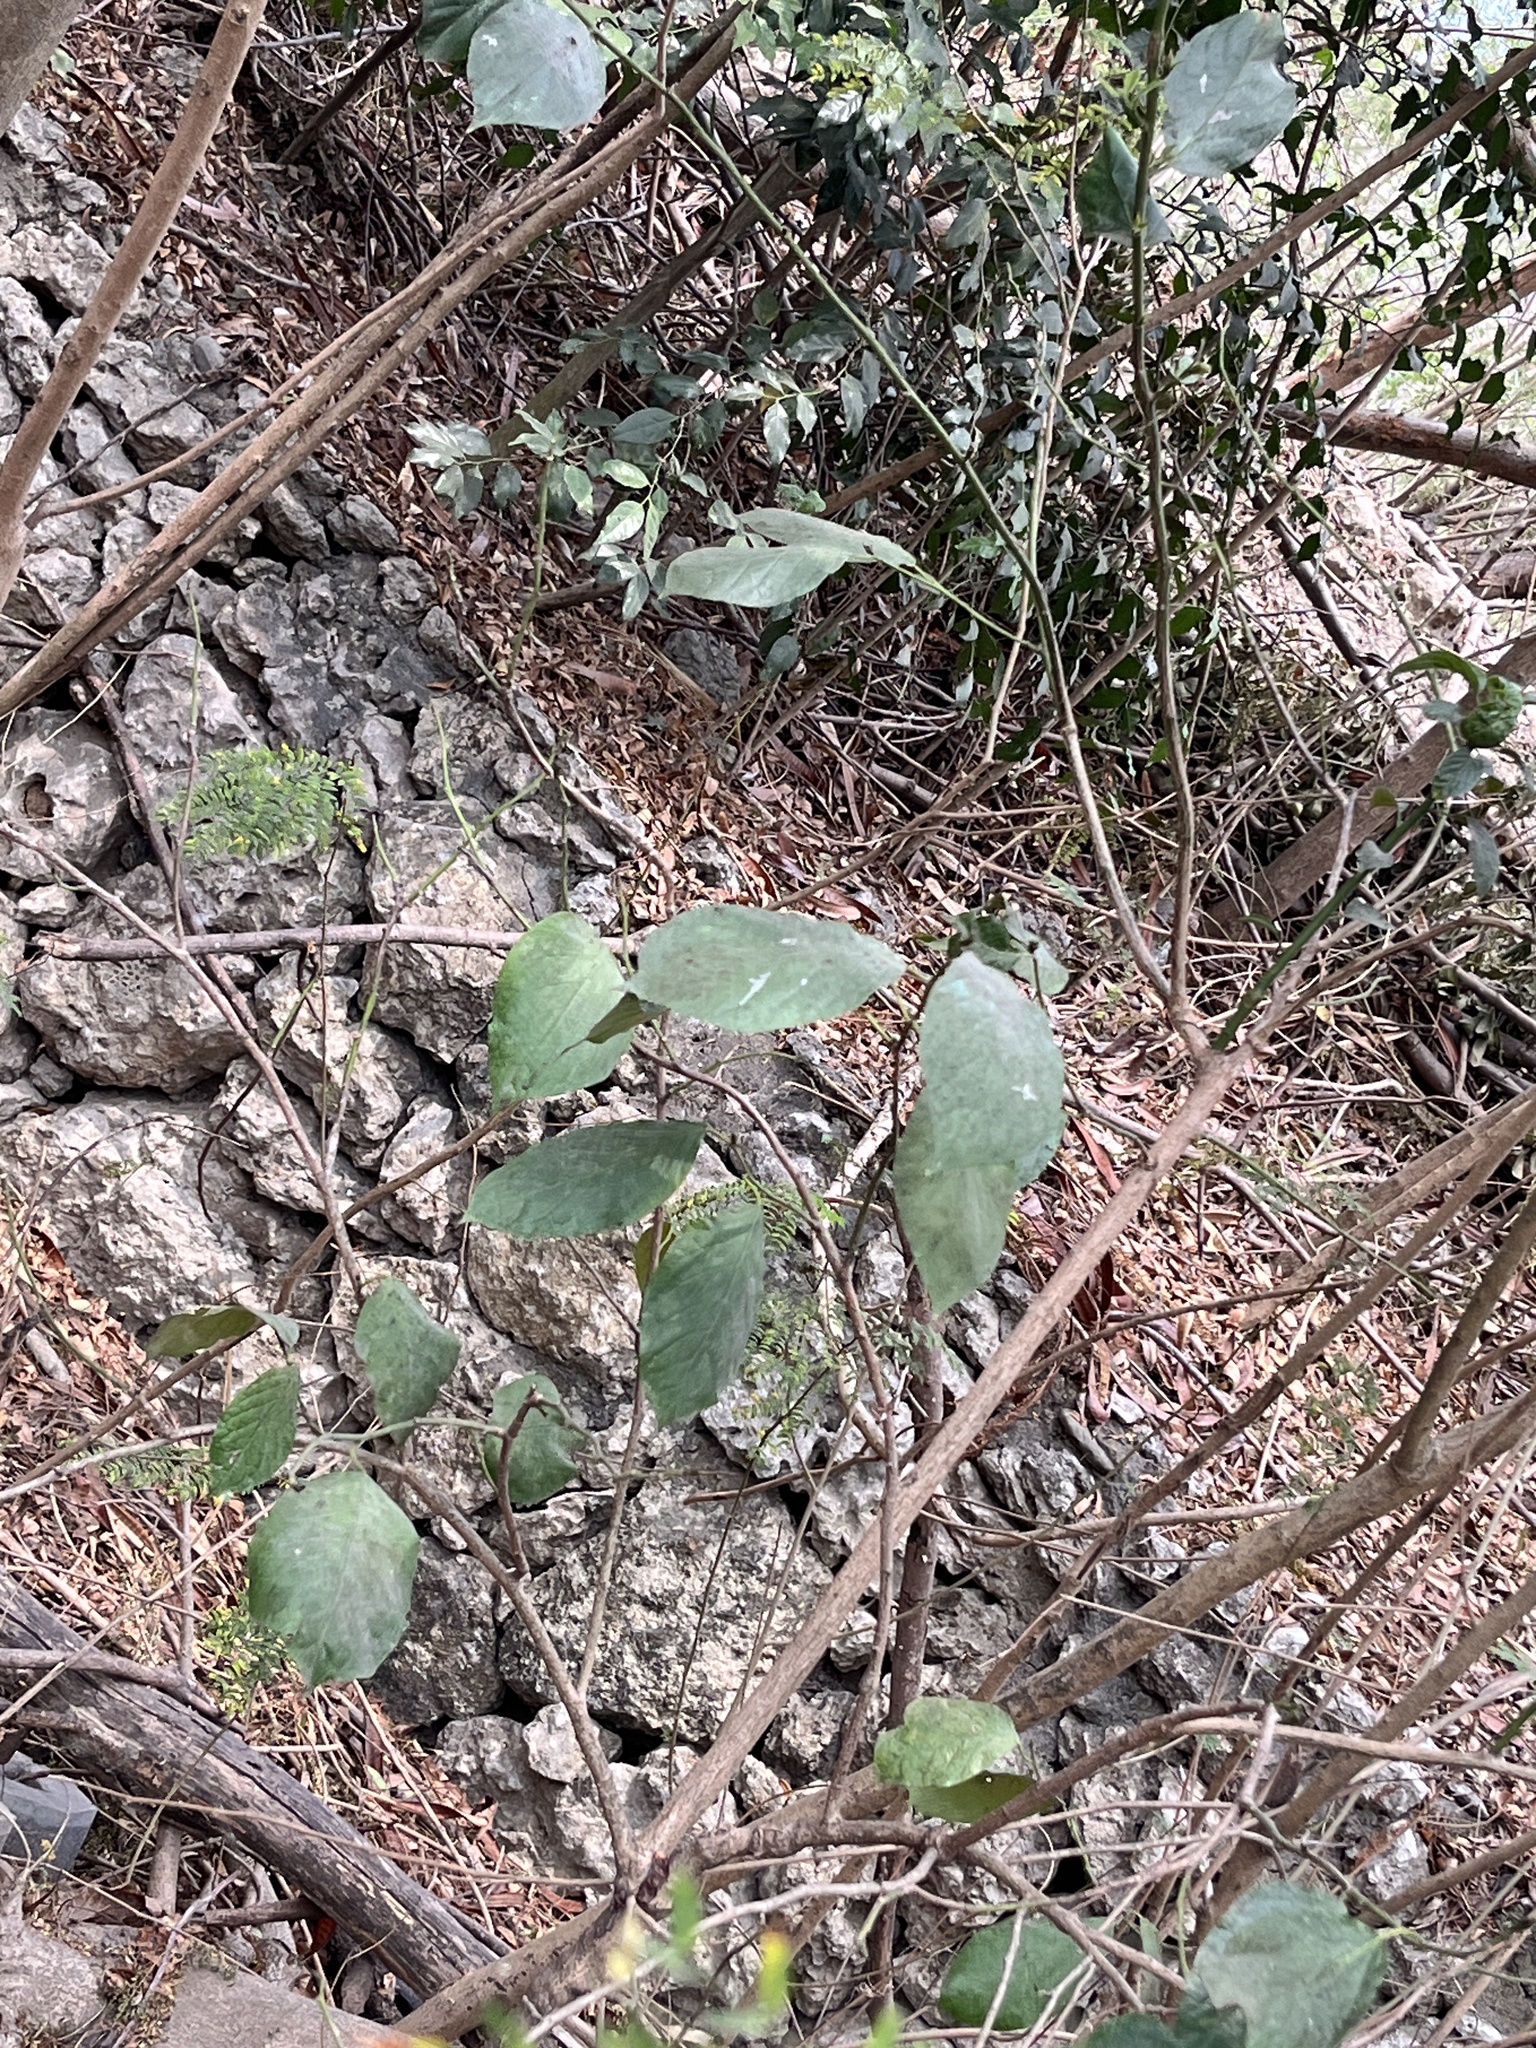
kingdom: Plantae
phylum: Tracheophyta
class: Magnoliopsida
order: Boraginales
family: Ehretiaceae
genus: Ehretia
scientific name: Ehretia resinosa
